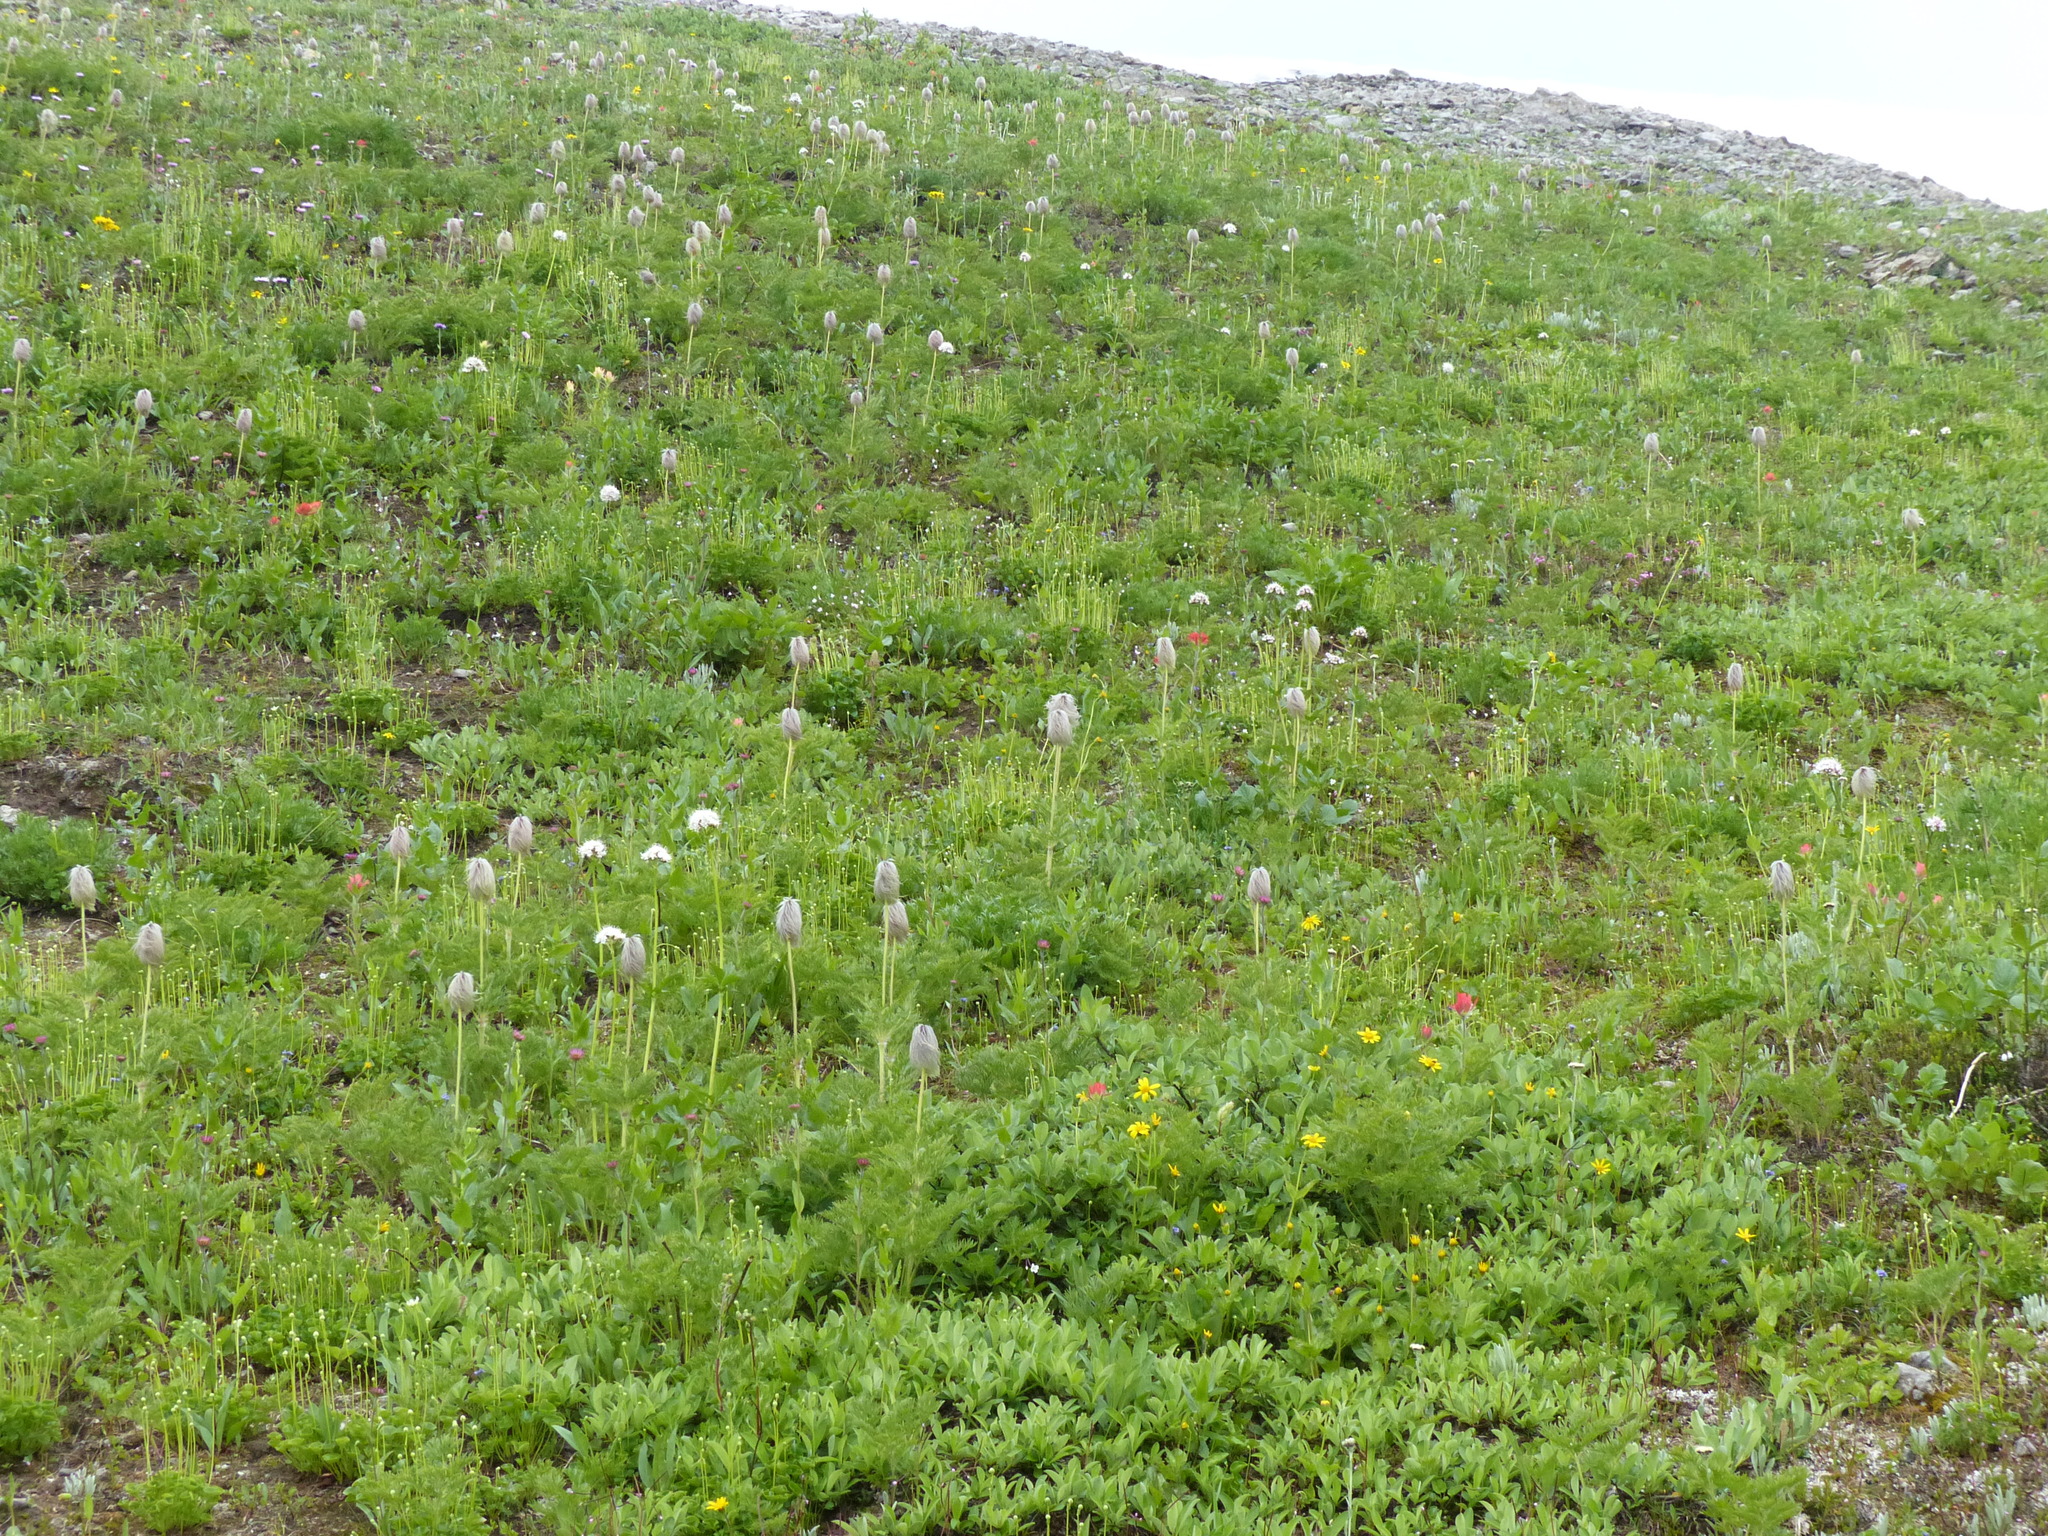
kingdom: Plantae
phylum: Tracheophyta
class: Magnoliopsida
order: Ranunculales
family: Ranunculaceae
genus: Pulsatilla
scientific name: Pulsatilla occidentalis
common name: Mountain pasqueflower
